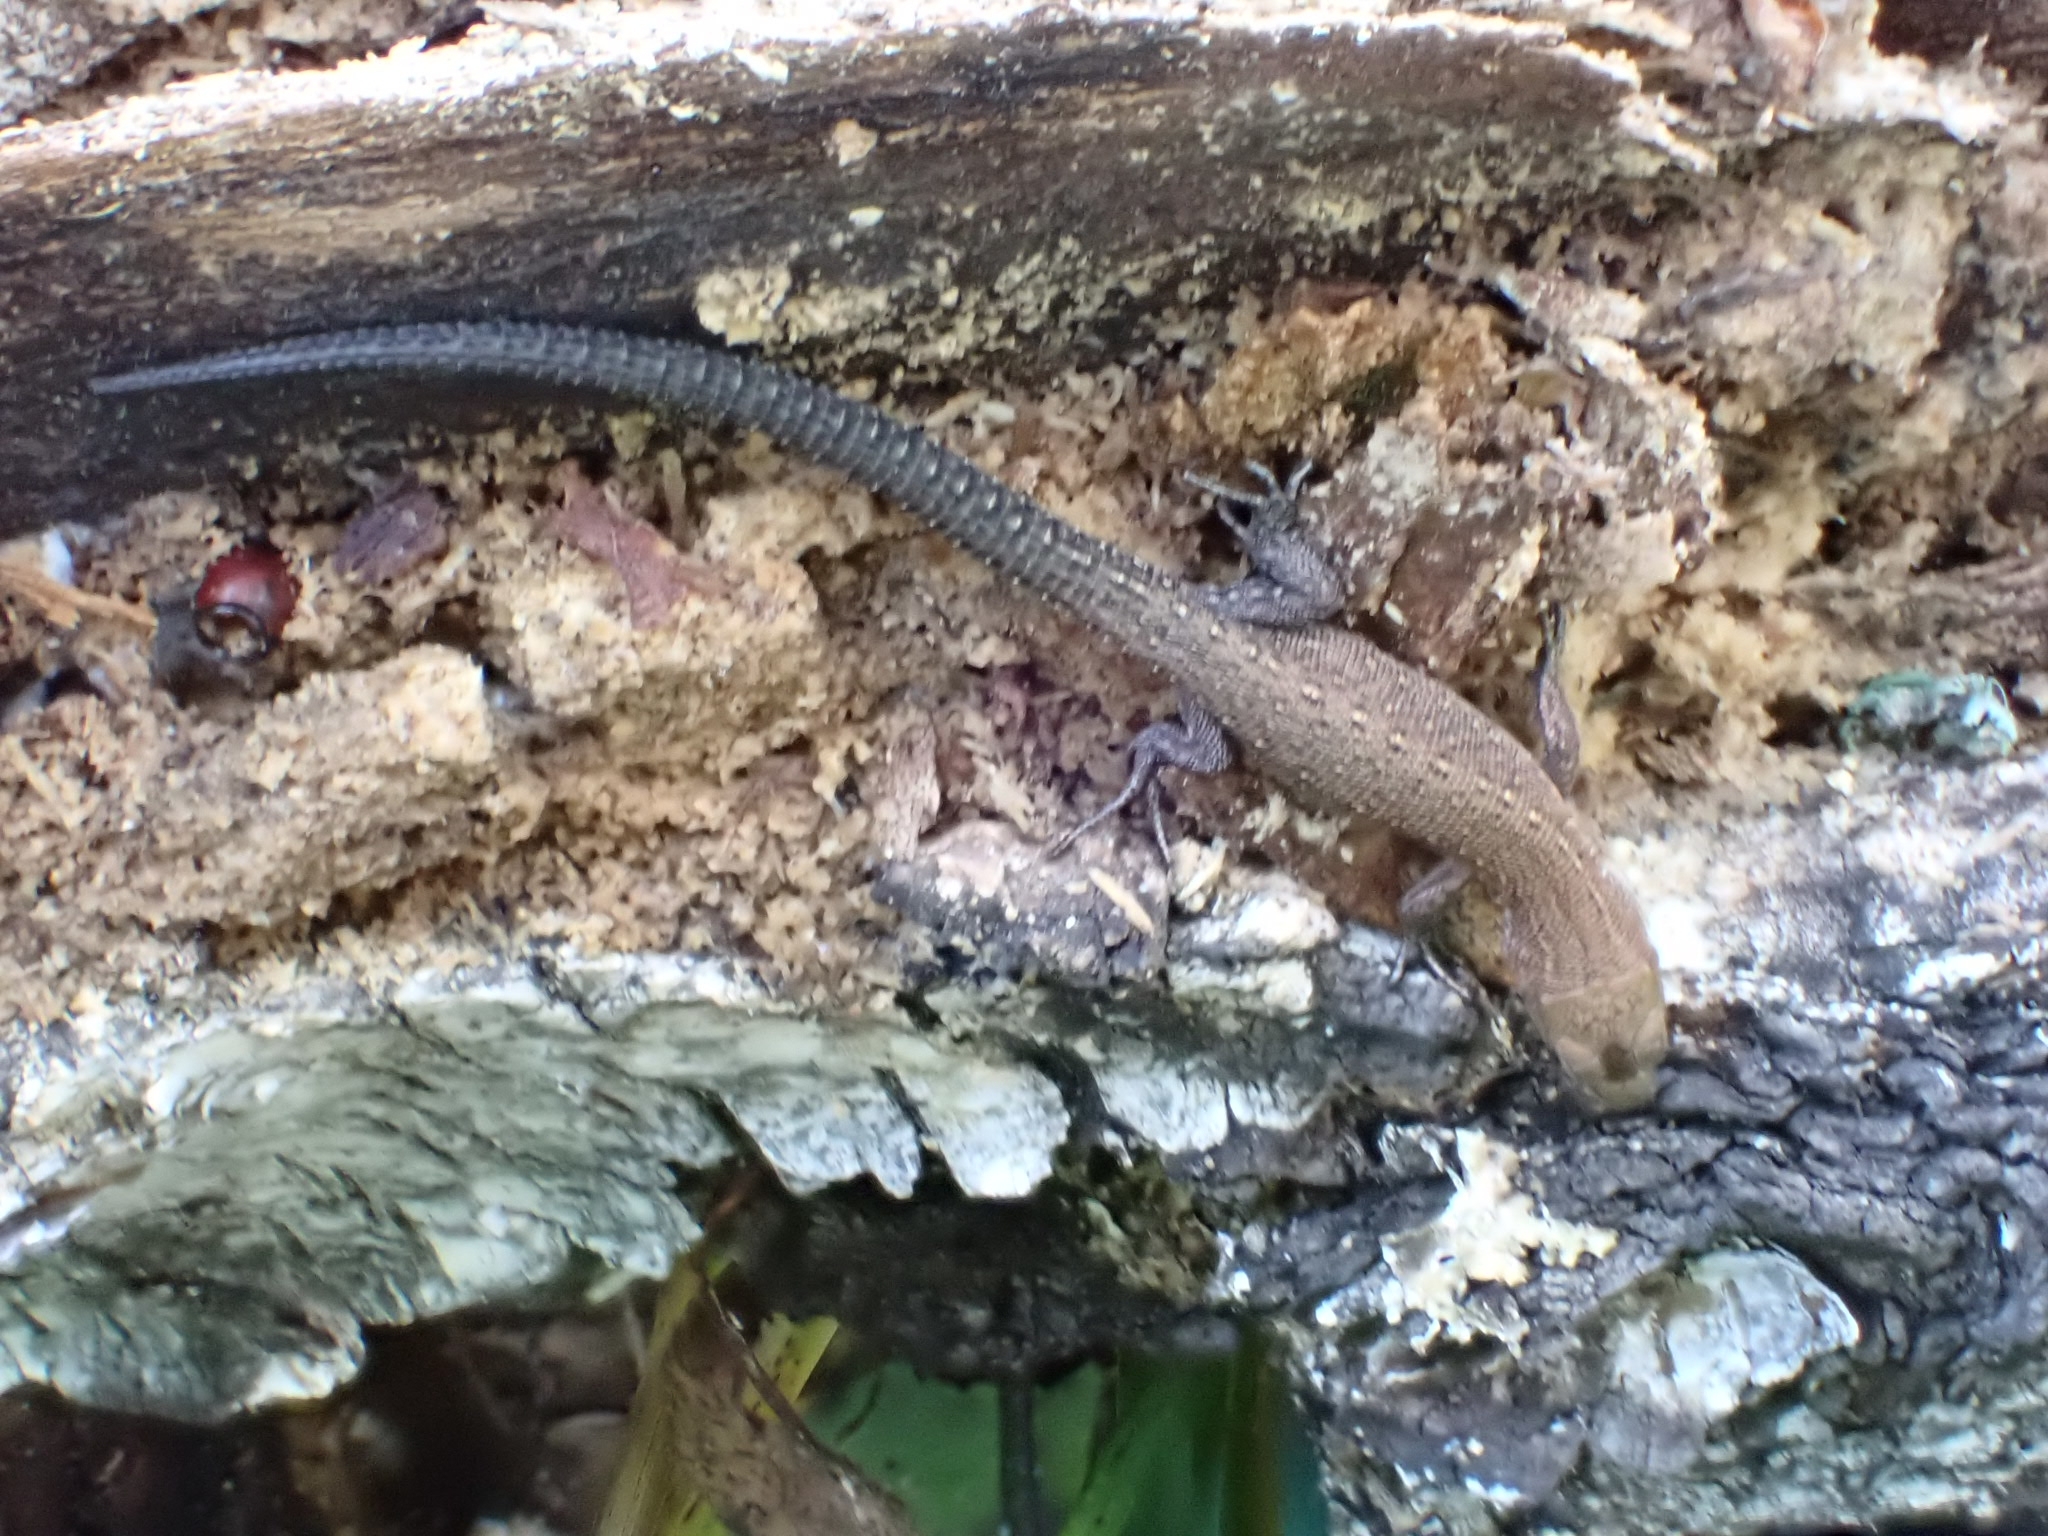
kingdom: Animalia
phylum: Chordata
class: Squamata
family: Lacertidae
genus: Zootoca
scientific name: Zootoca vivipara
